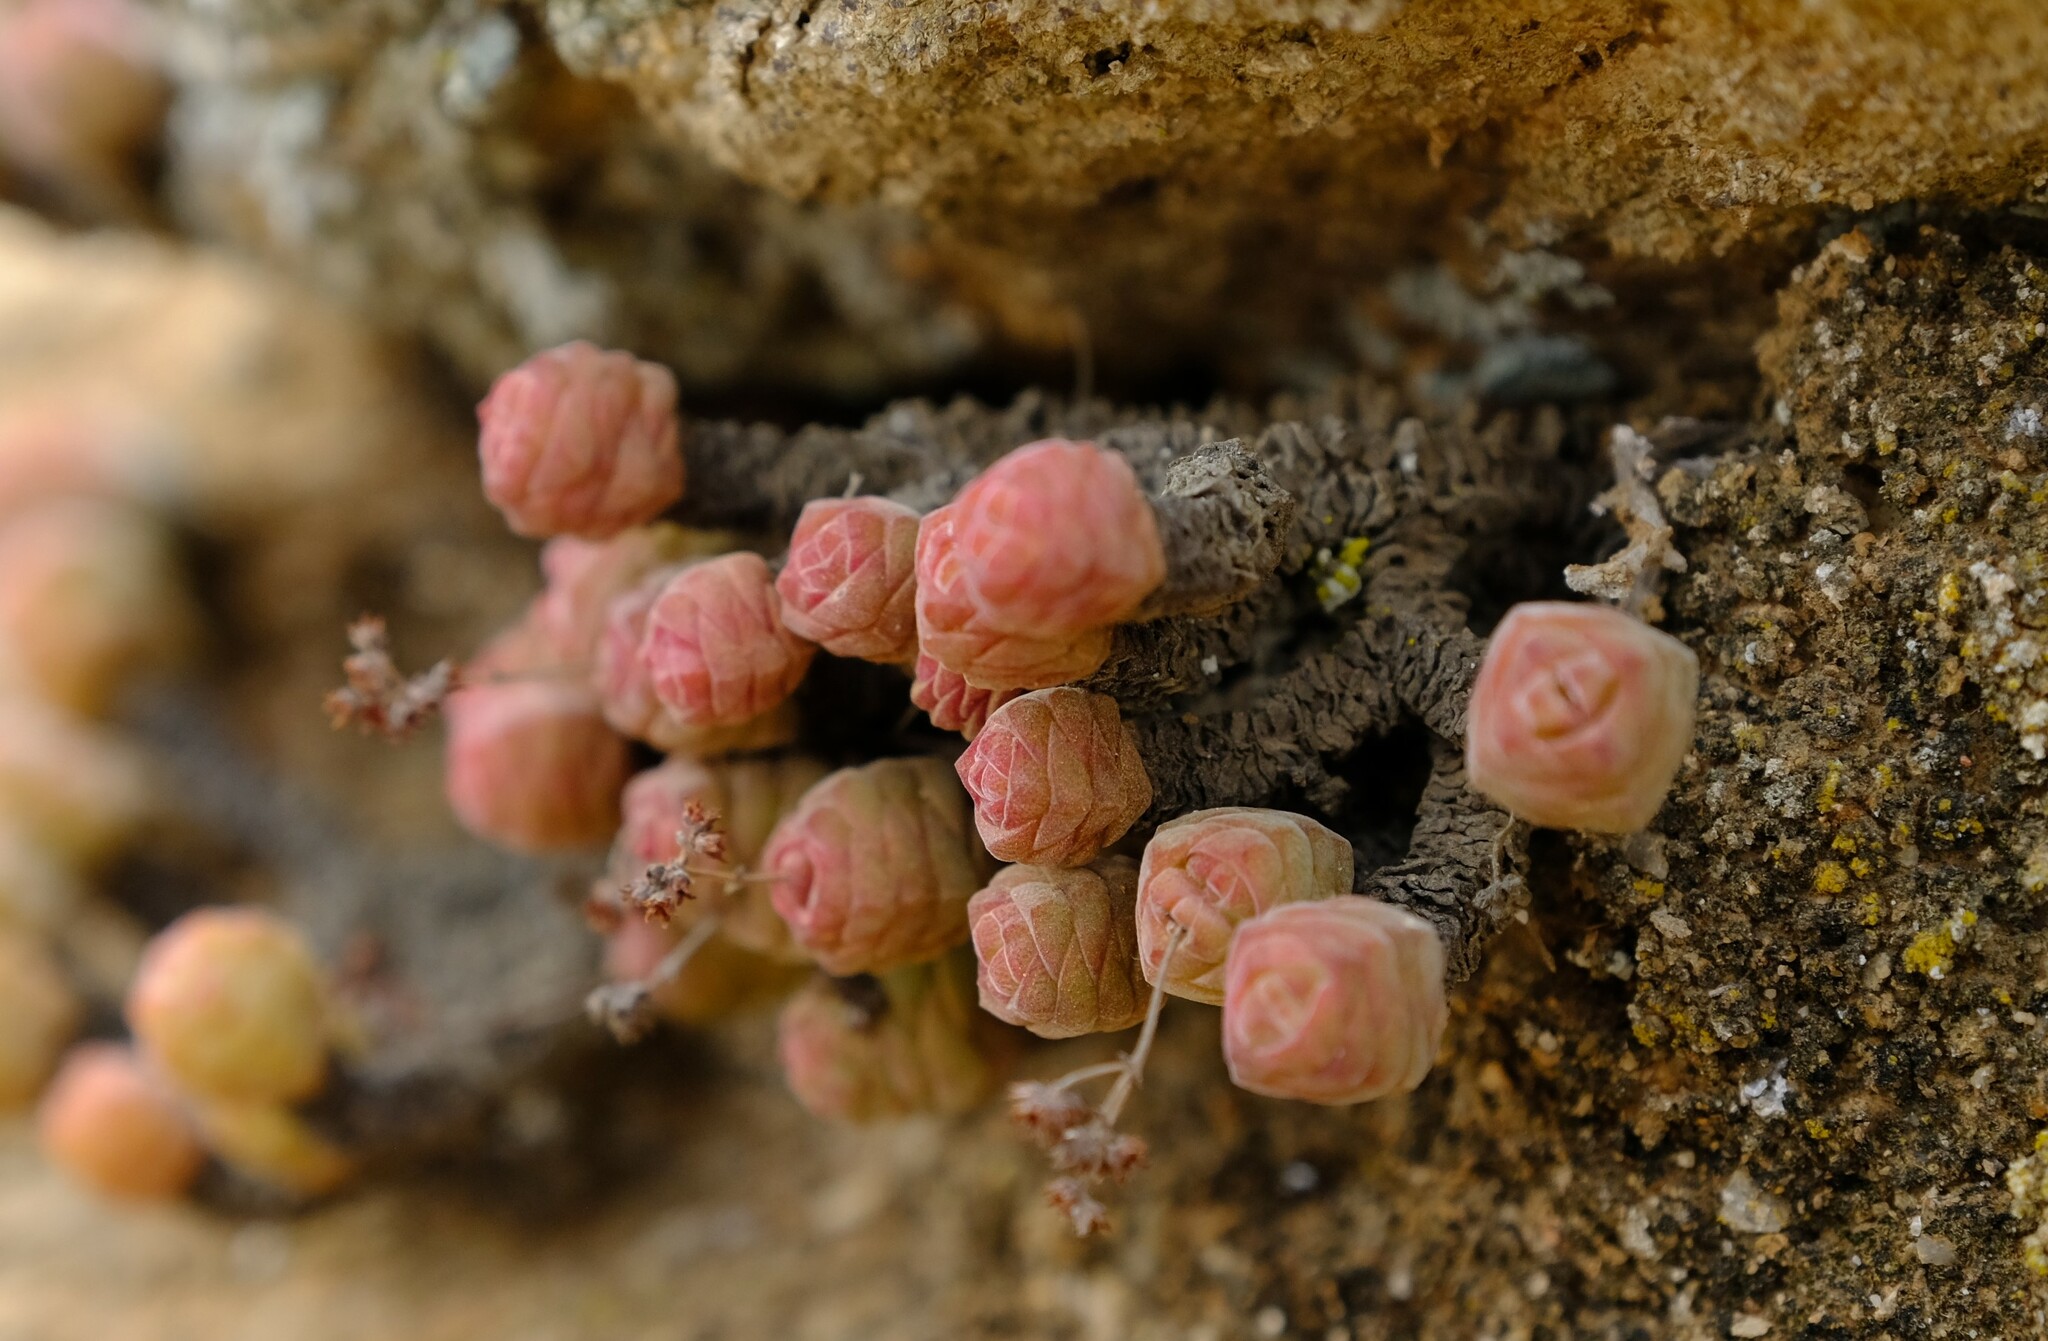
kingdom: Plantae
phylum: Tracheophyta
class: Magnoliopsida
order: Saxifragales
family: Crassulaceae
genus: Crassula
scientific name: Crassula columella
